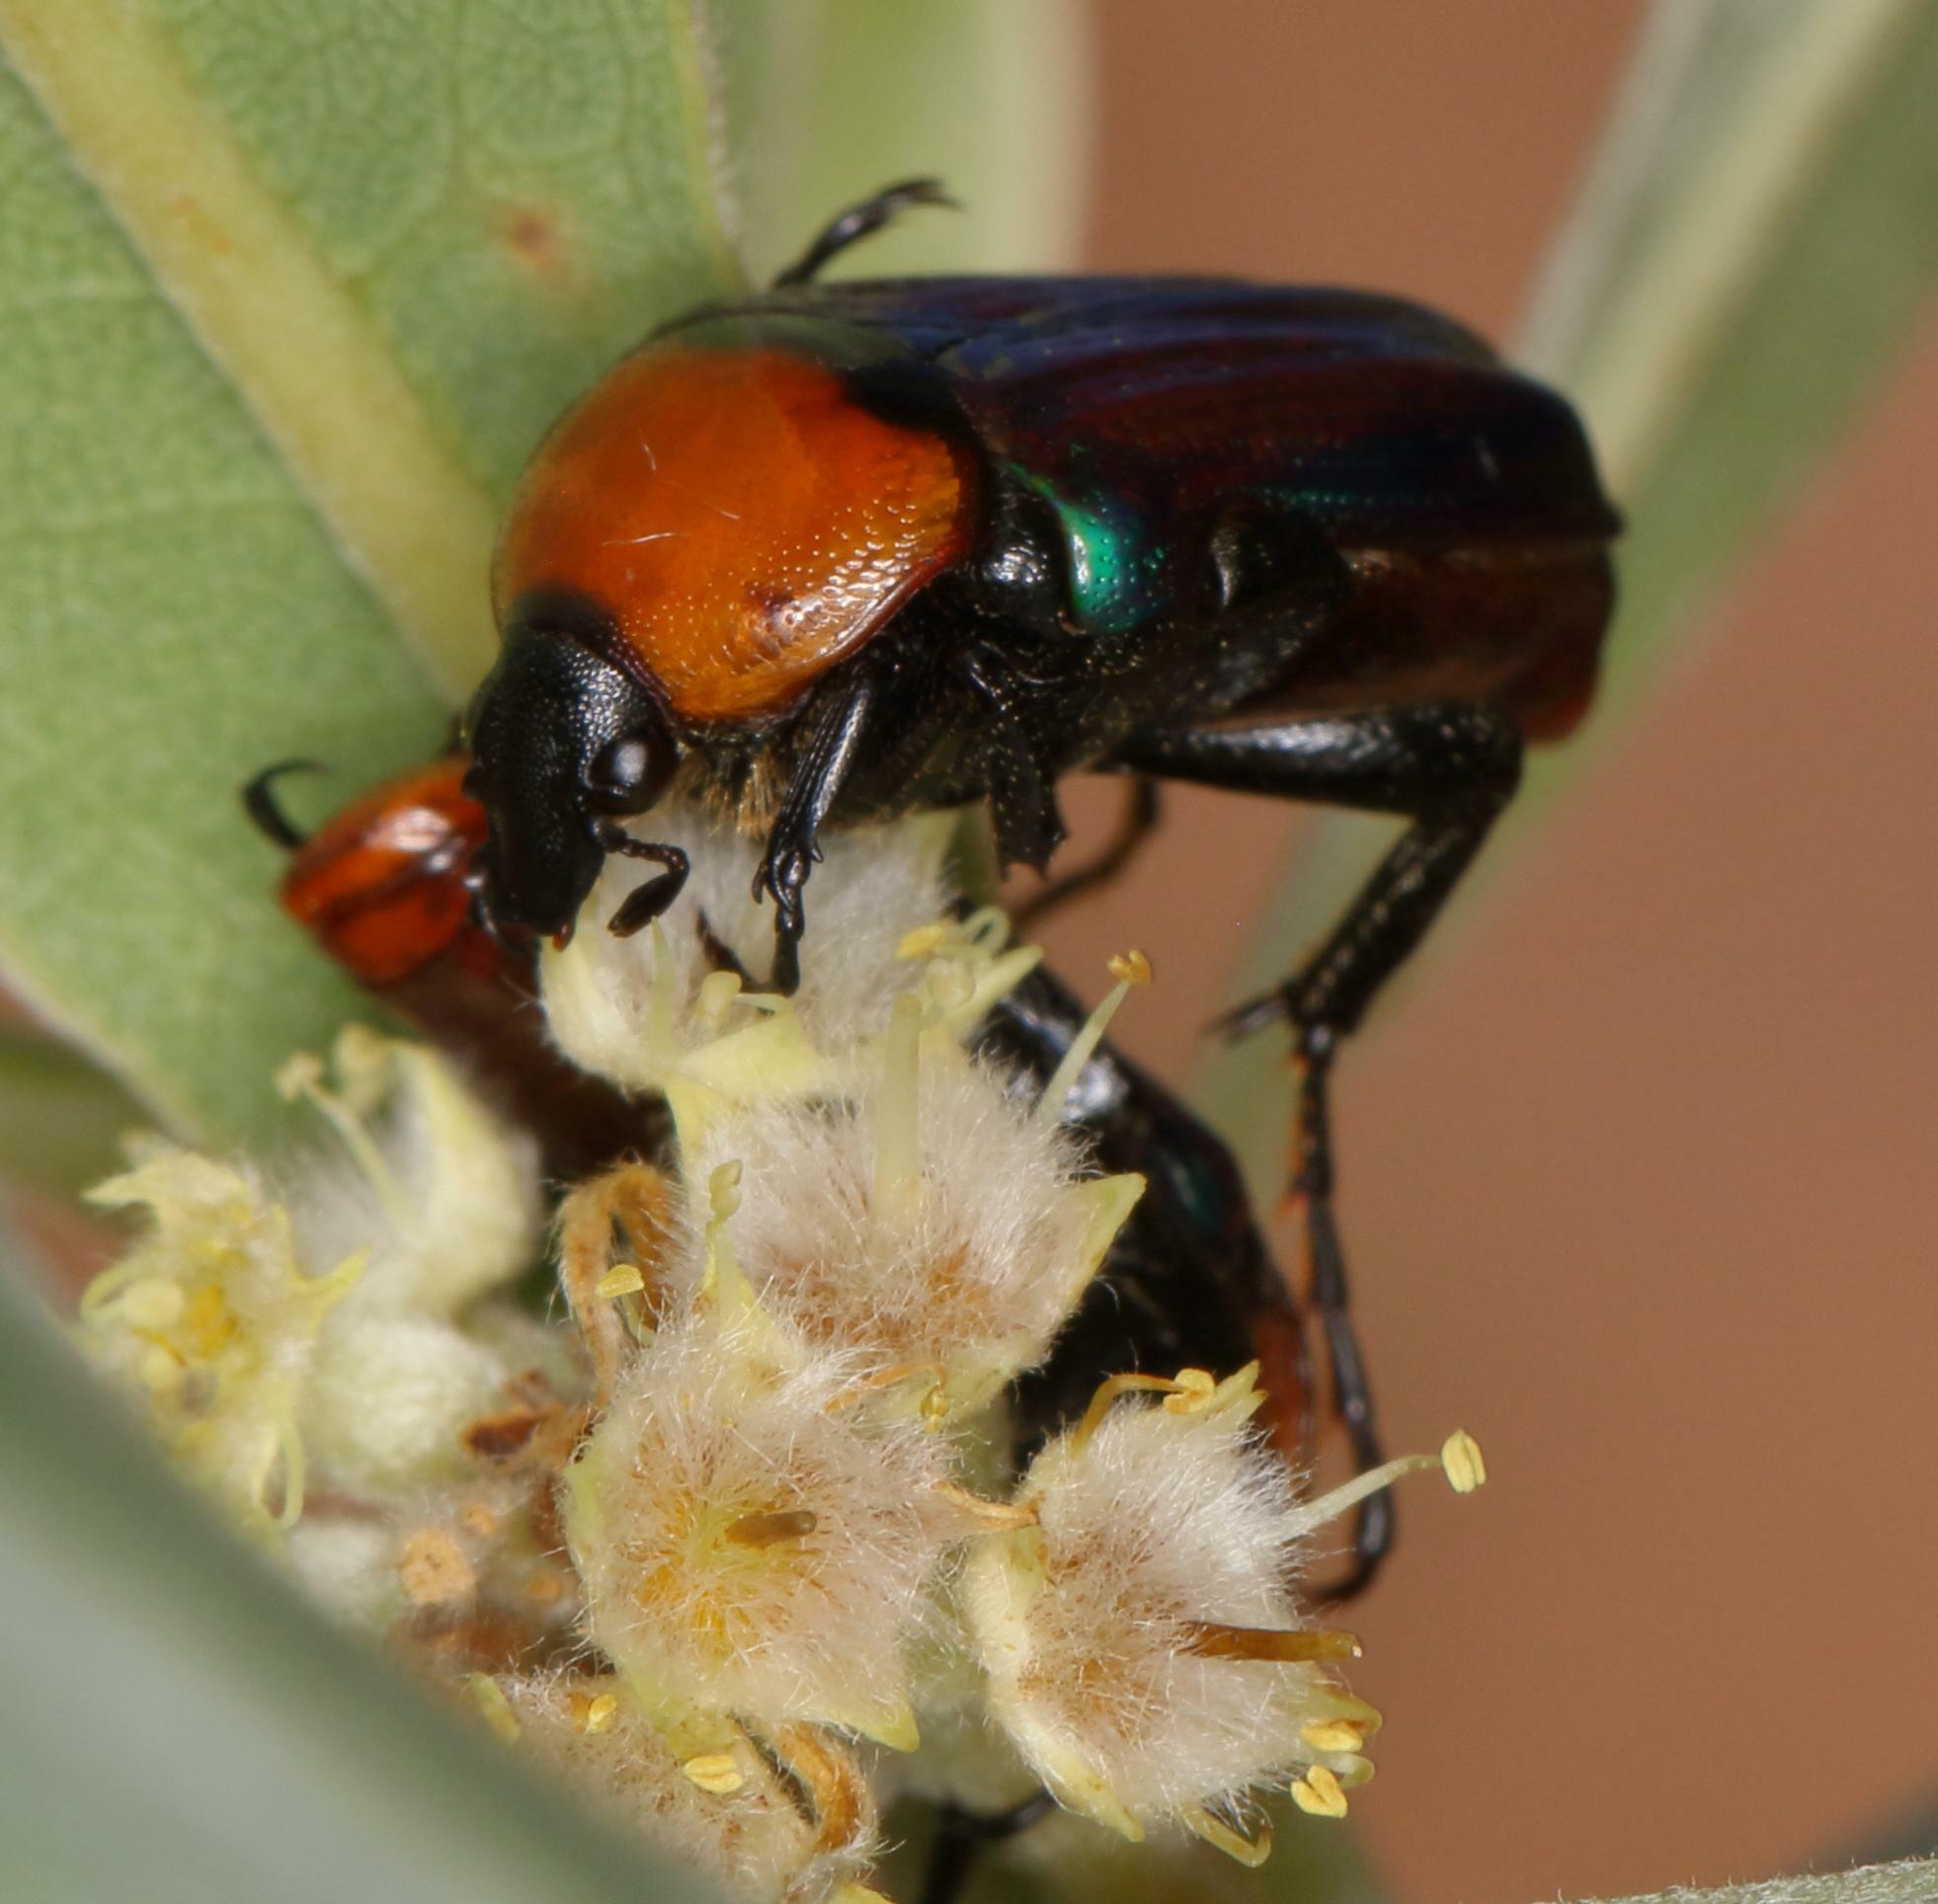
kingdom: Animalia
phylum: Arthropoda
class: Insecta
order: Coleoptera
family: Scarabaeidae
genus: Leucocelis
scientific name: Leucocelis amethystina
